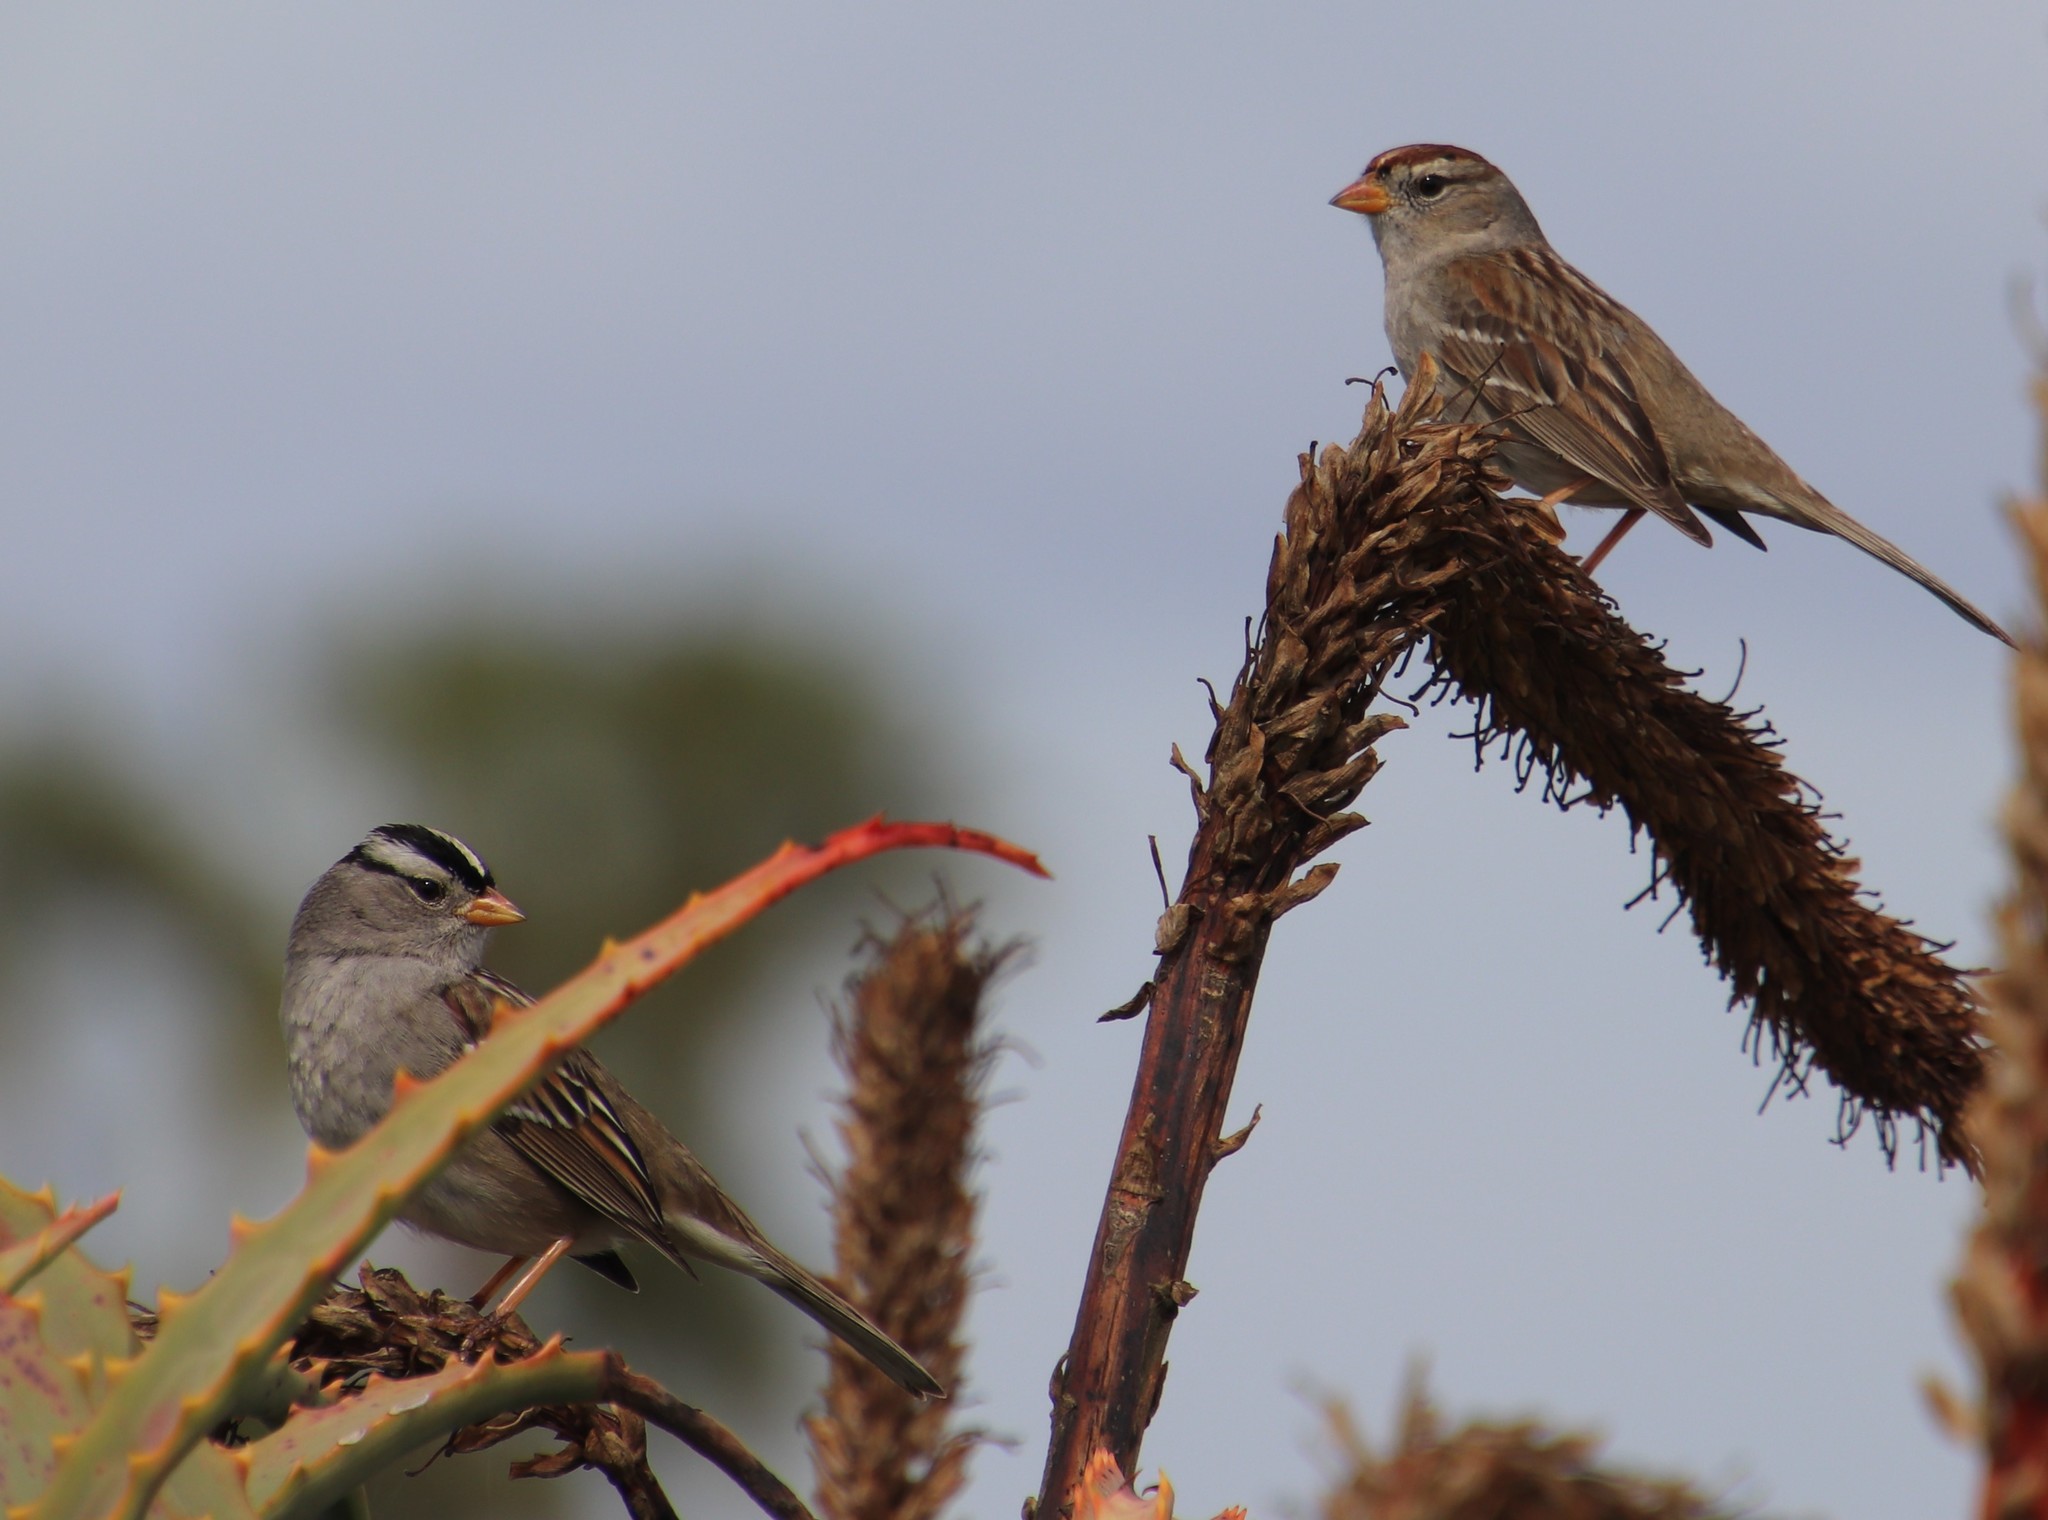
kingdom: Animalia
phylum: Chordata
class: Aves
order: Passeriformes
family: Passerellidae
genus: Zonotrichia
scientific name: Zonotrichia leucophrys
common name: White-crowned sparrow
